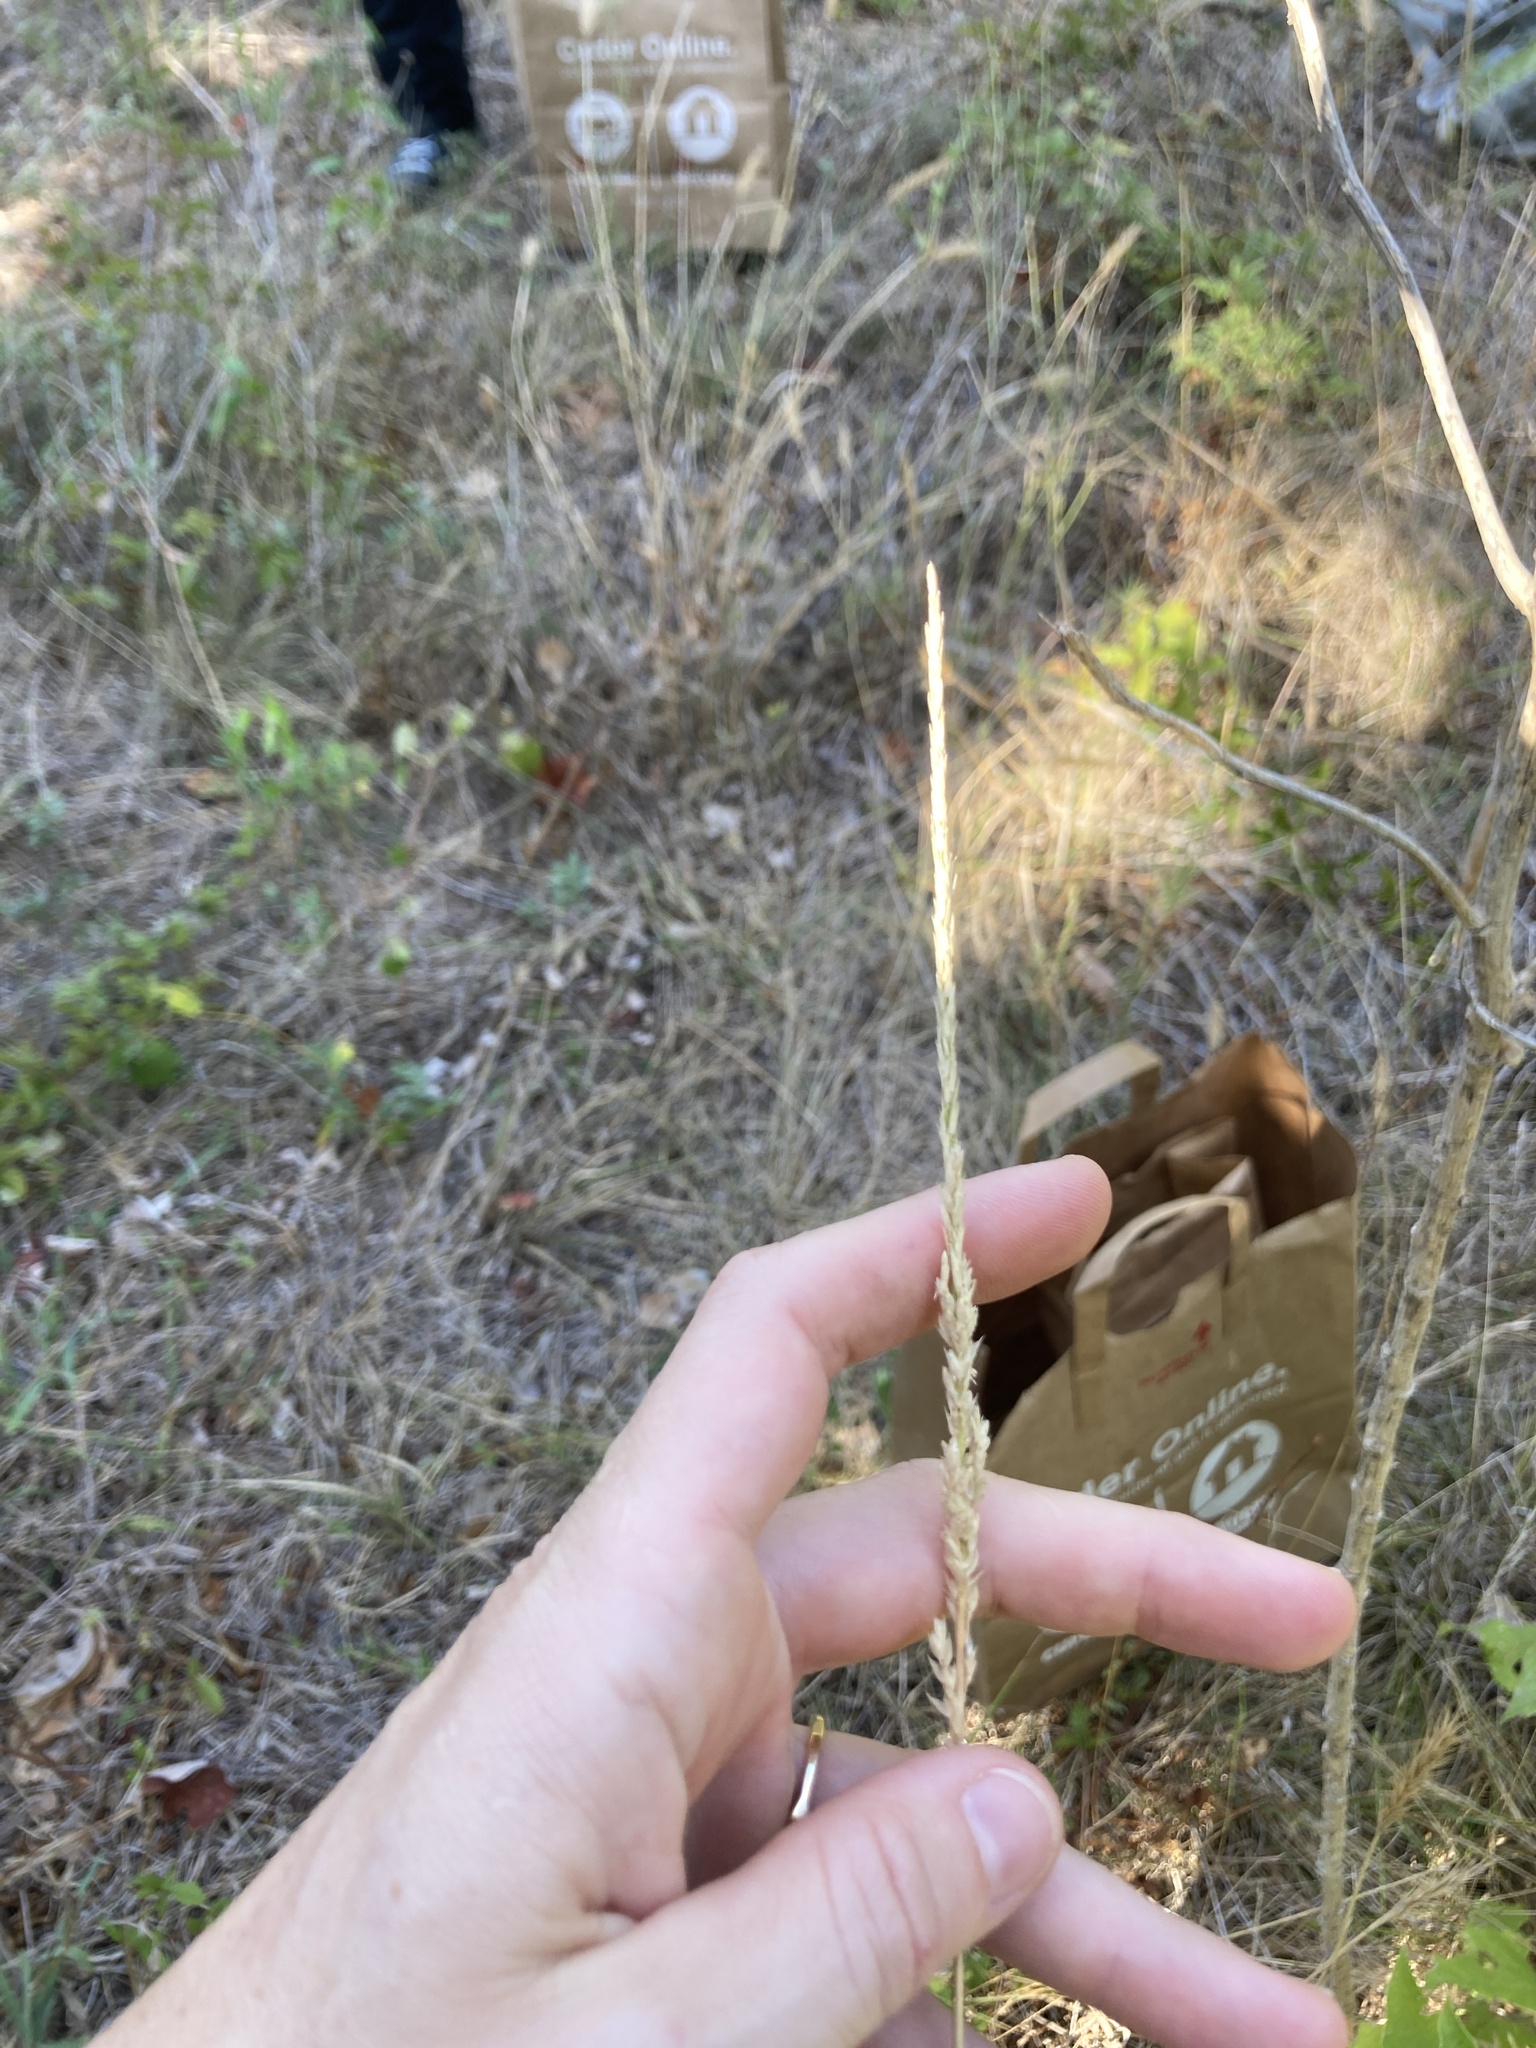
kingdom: Plantae
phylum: Tracheophyta
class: Liliopsida
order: Poales
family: Poaceae
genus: Tridens
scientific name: Tridens albescens
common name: White tridens
